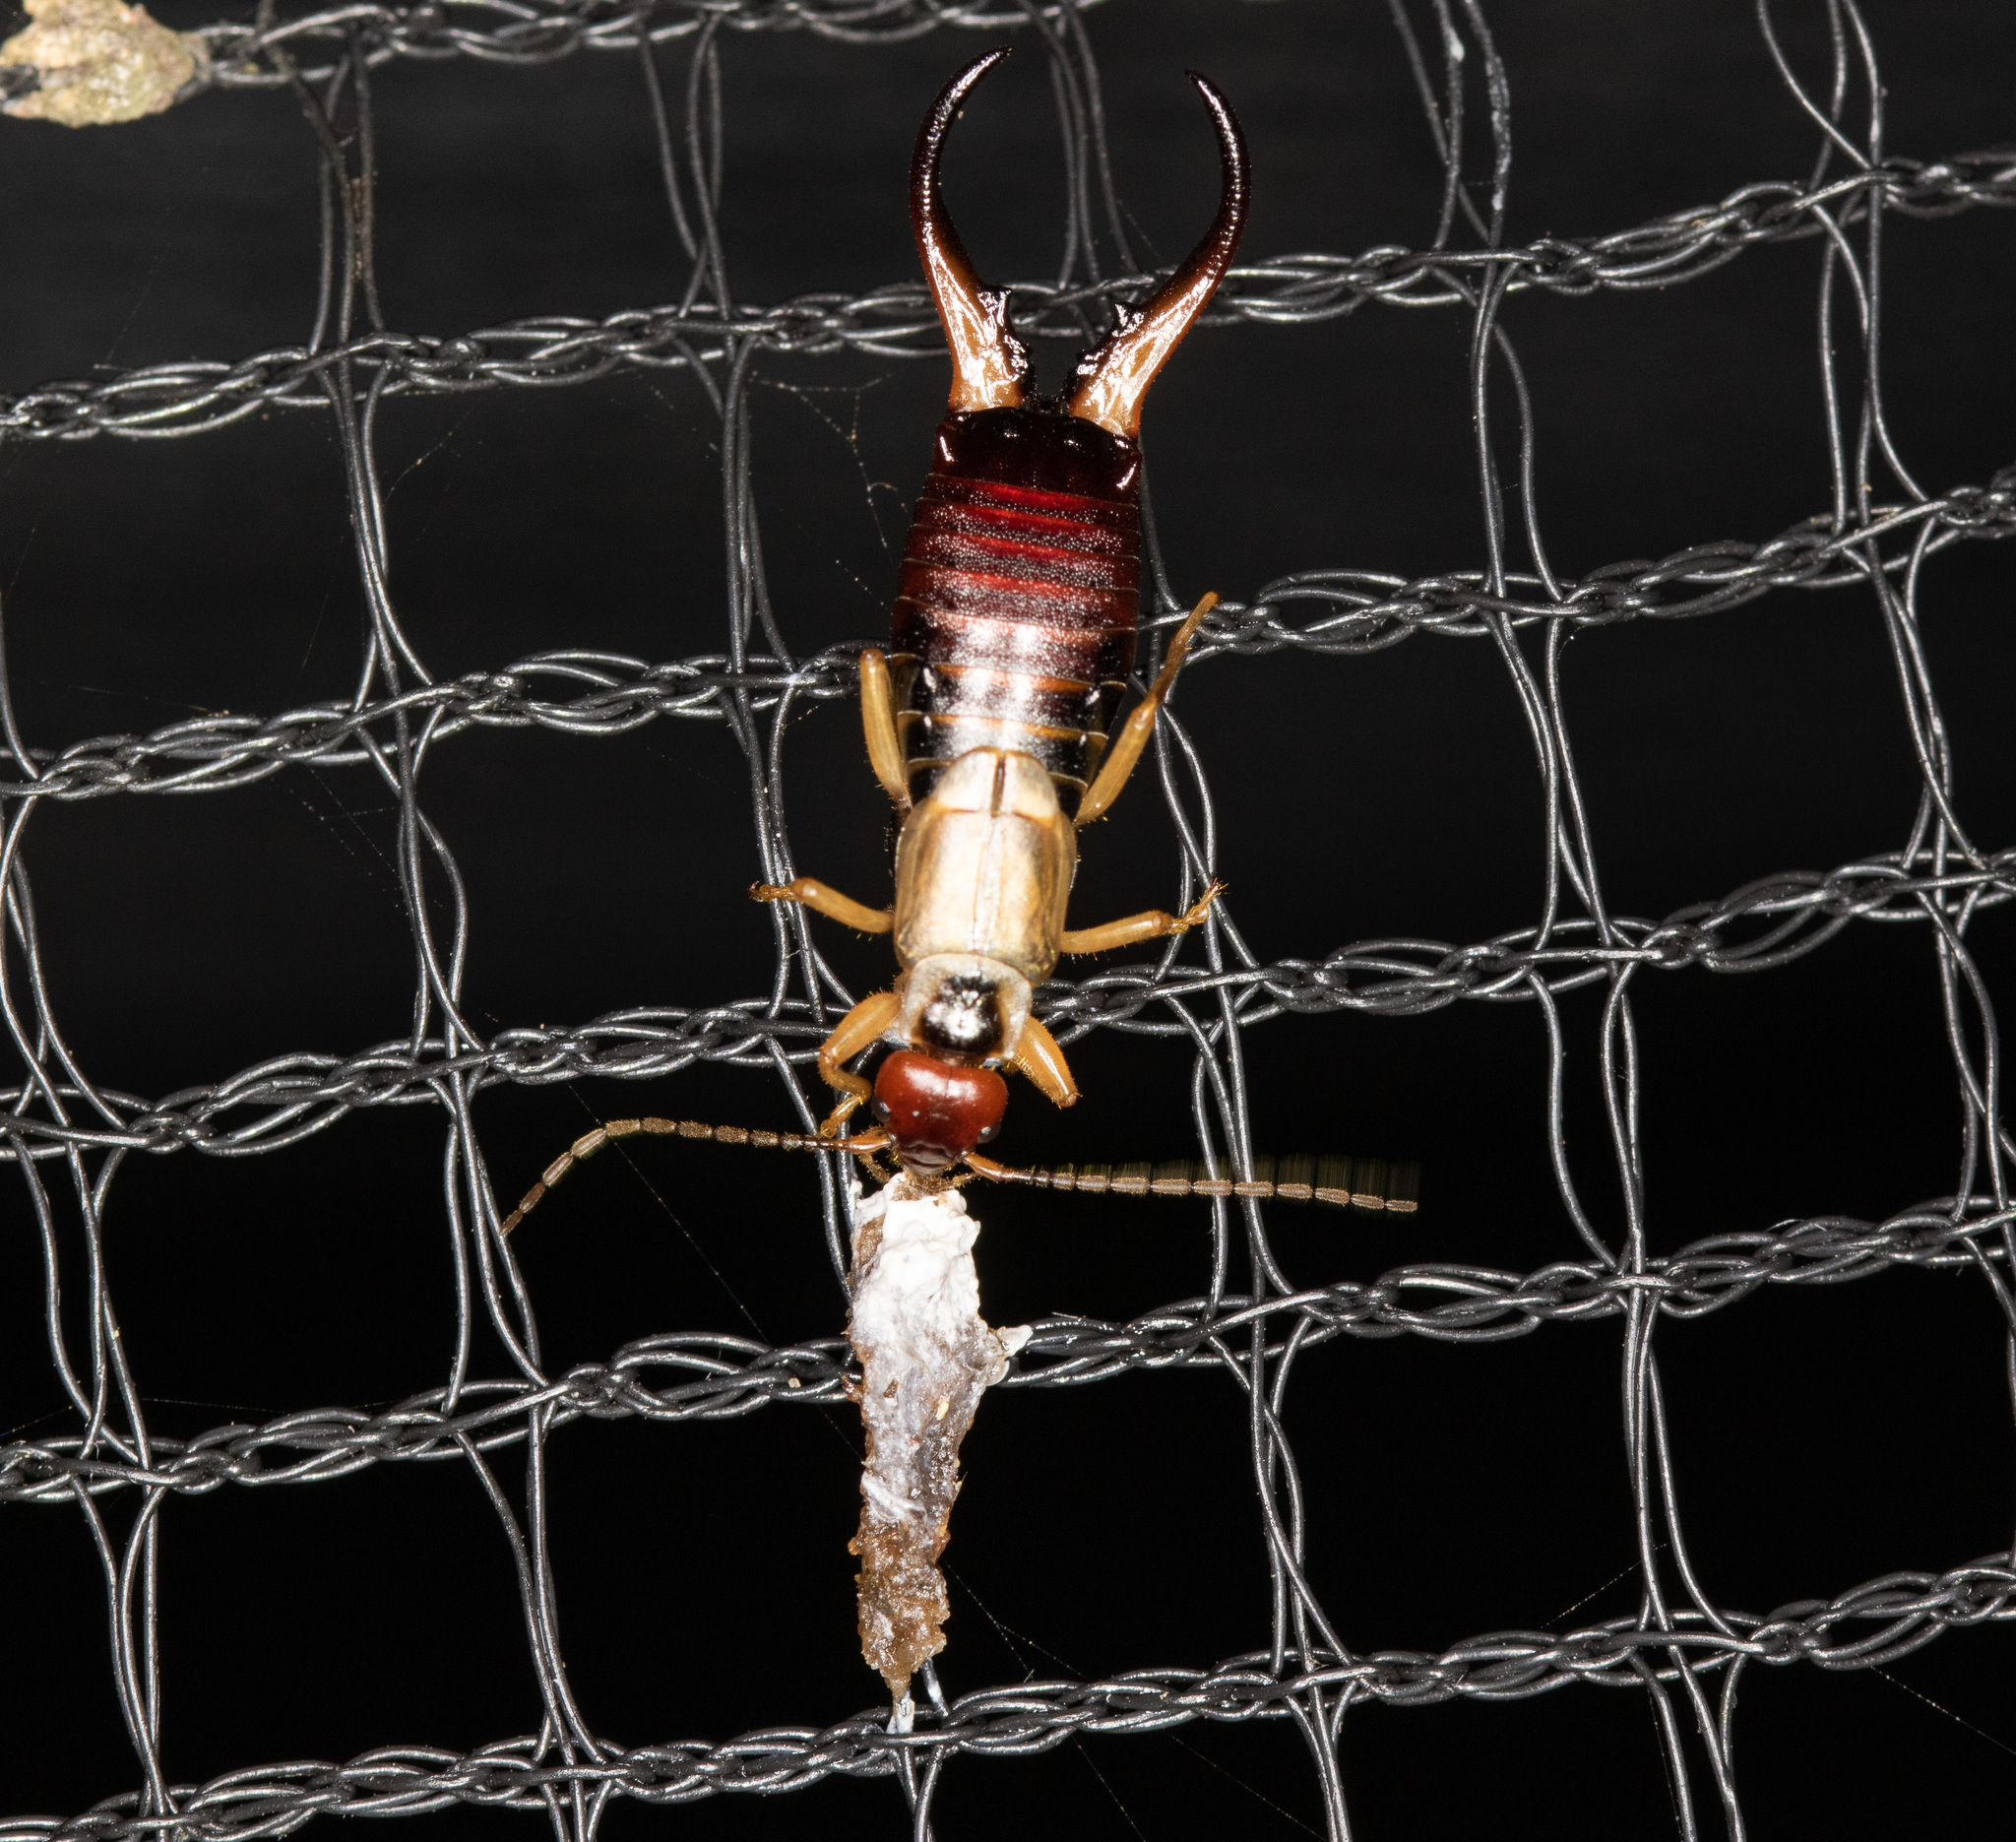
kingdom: Animalia
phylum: Arthropoda
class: Insecta
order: Dermaptera
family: Forficulidae
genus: Forficula
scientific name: Forficula
